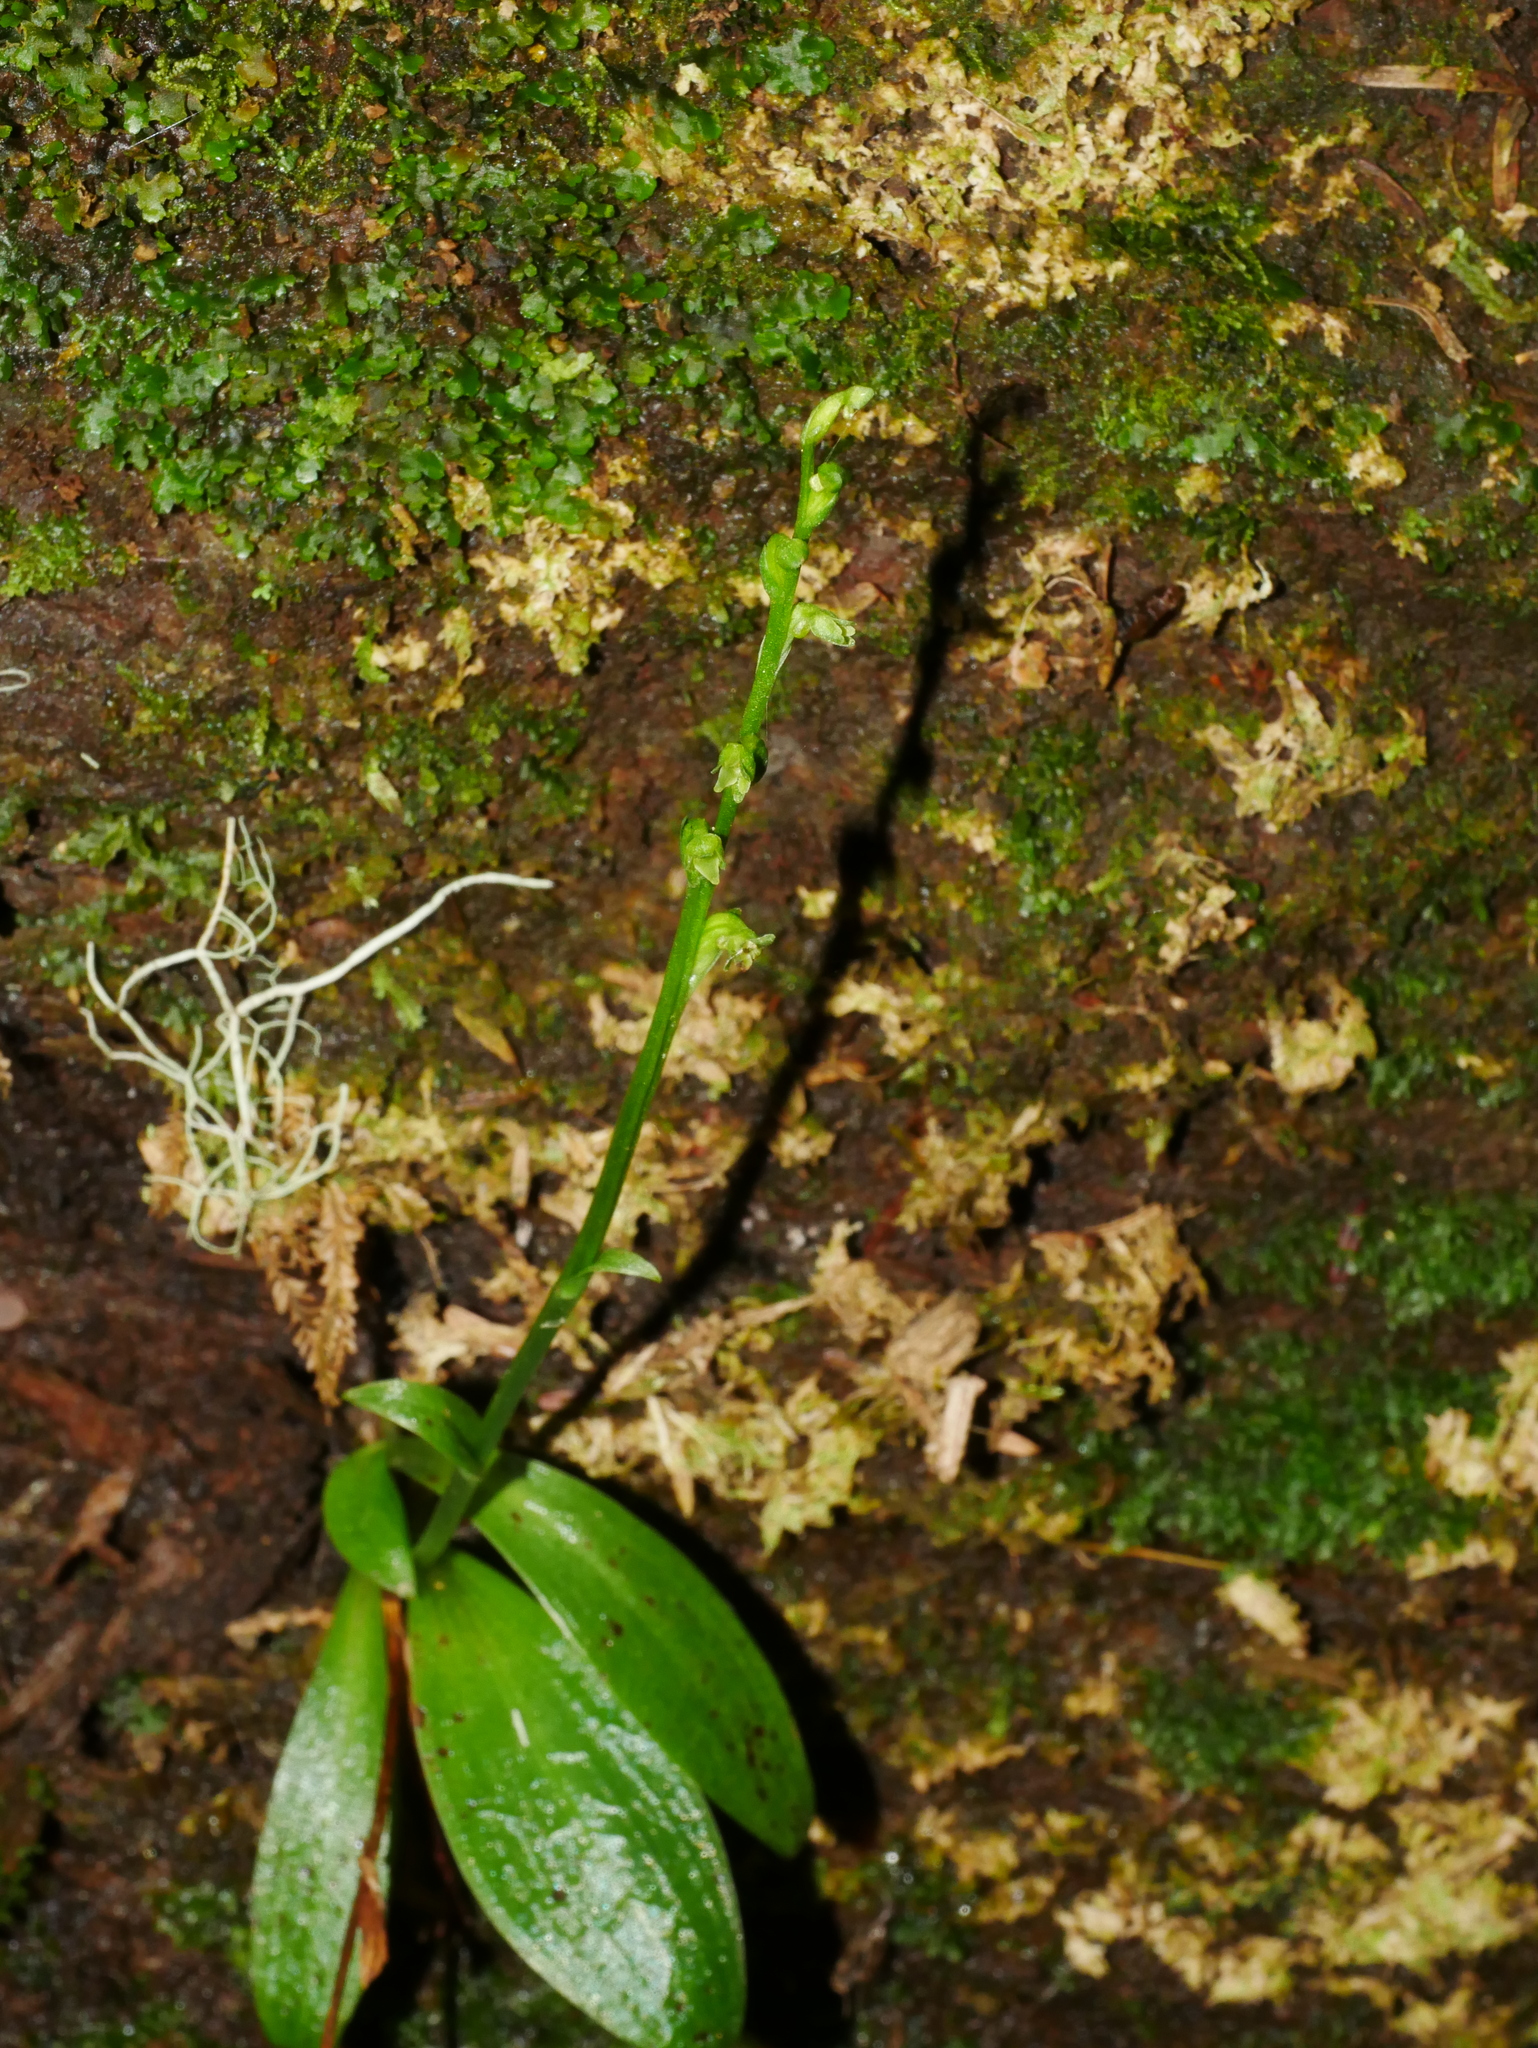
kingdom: Plantae
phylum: Tracheophyta
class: Liliopsida
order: Asparagales
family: Orchidaceae
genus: Platanthera
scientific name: Platanthera minor
